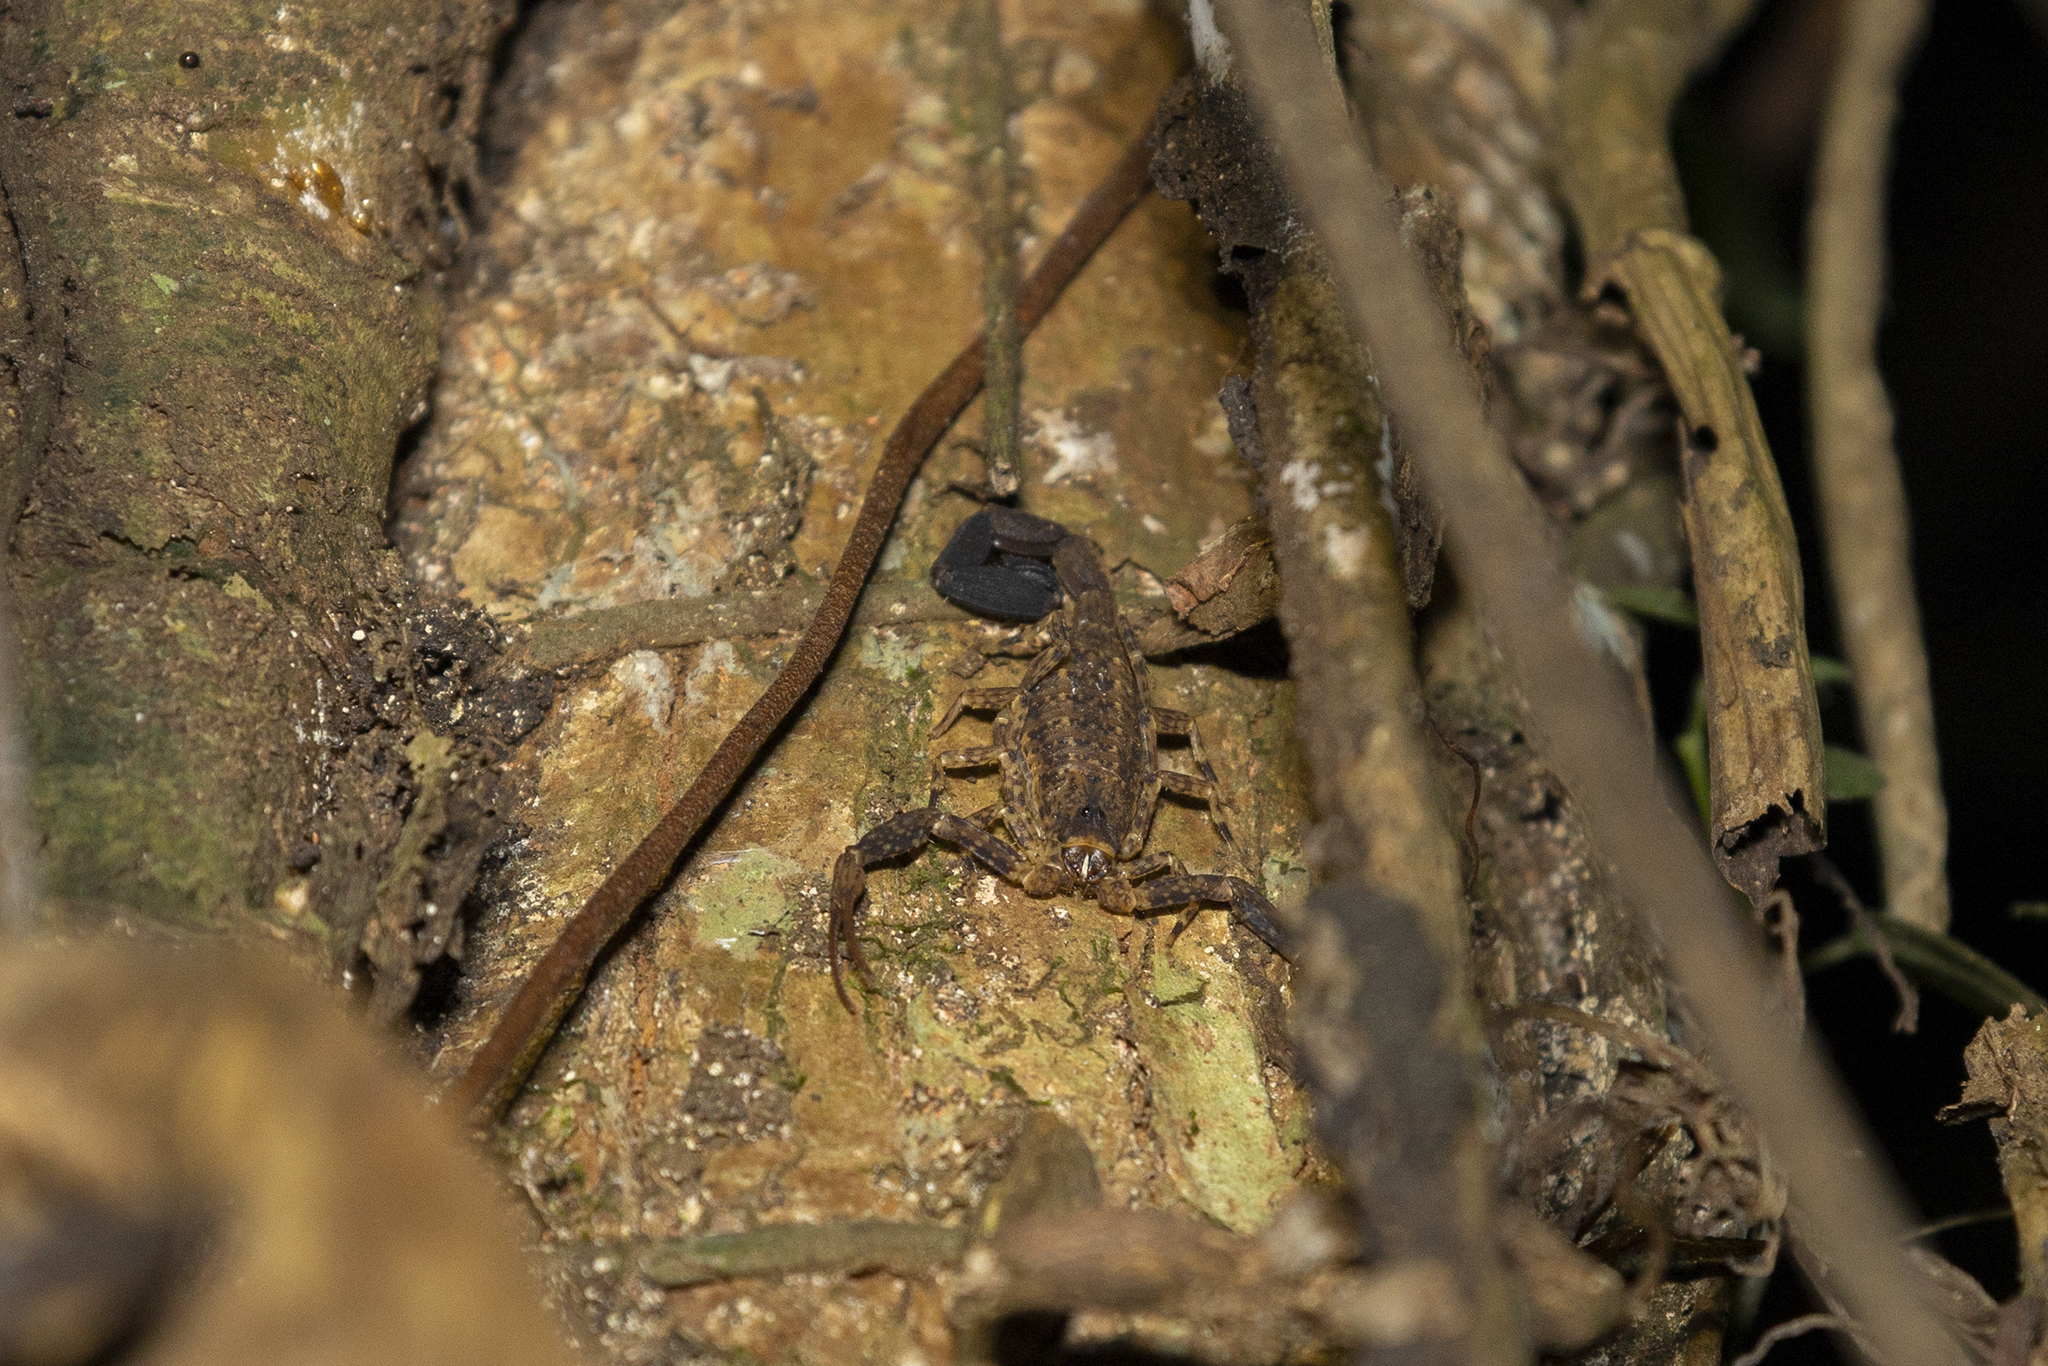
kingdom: Animalia
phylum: Arthropoda
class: Arachnida
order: Scorpiones
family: Buthidae
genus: Tityus
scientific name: Tityus silvestris
